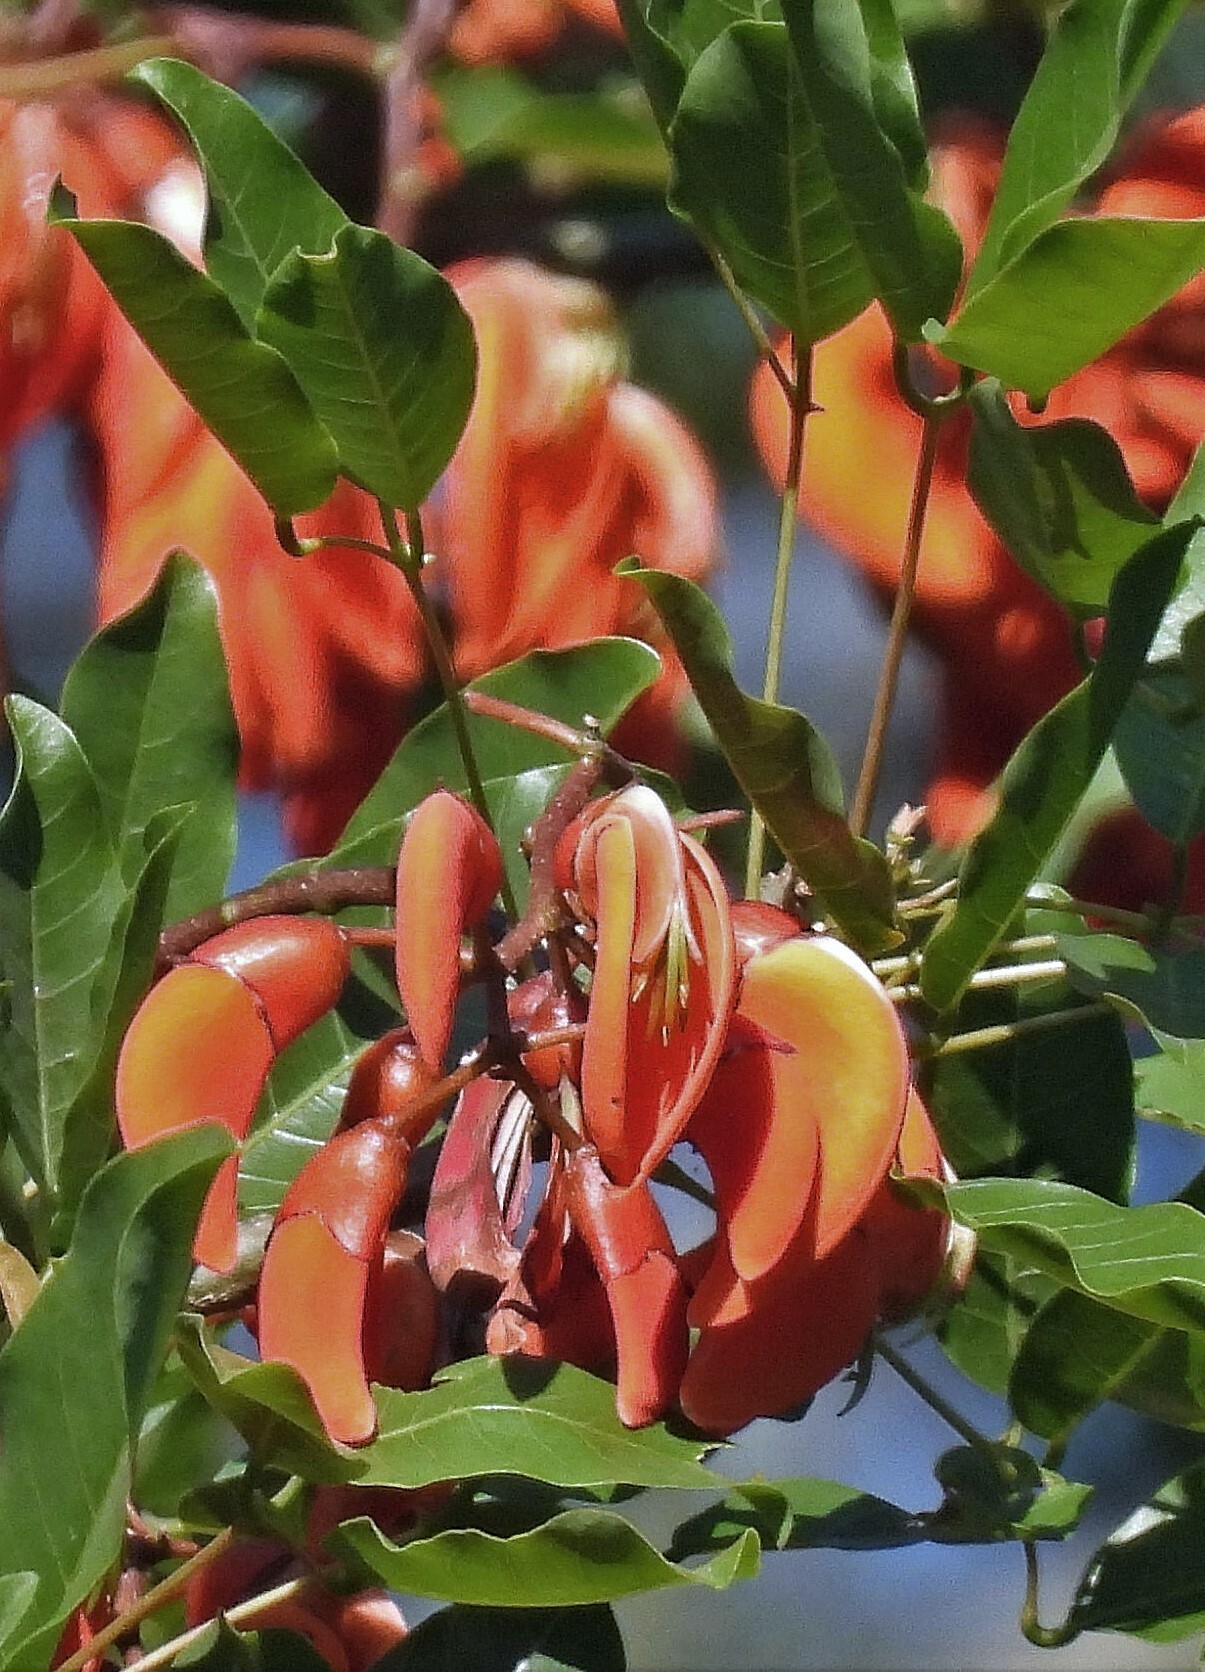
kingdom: Plantae
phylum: Tracheophyta
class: Magnoliopsida
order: Fabales
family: Fabaceae
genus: Erythrina
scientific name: Erythrina falcata
